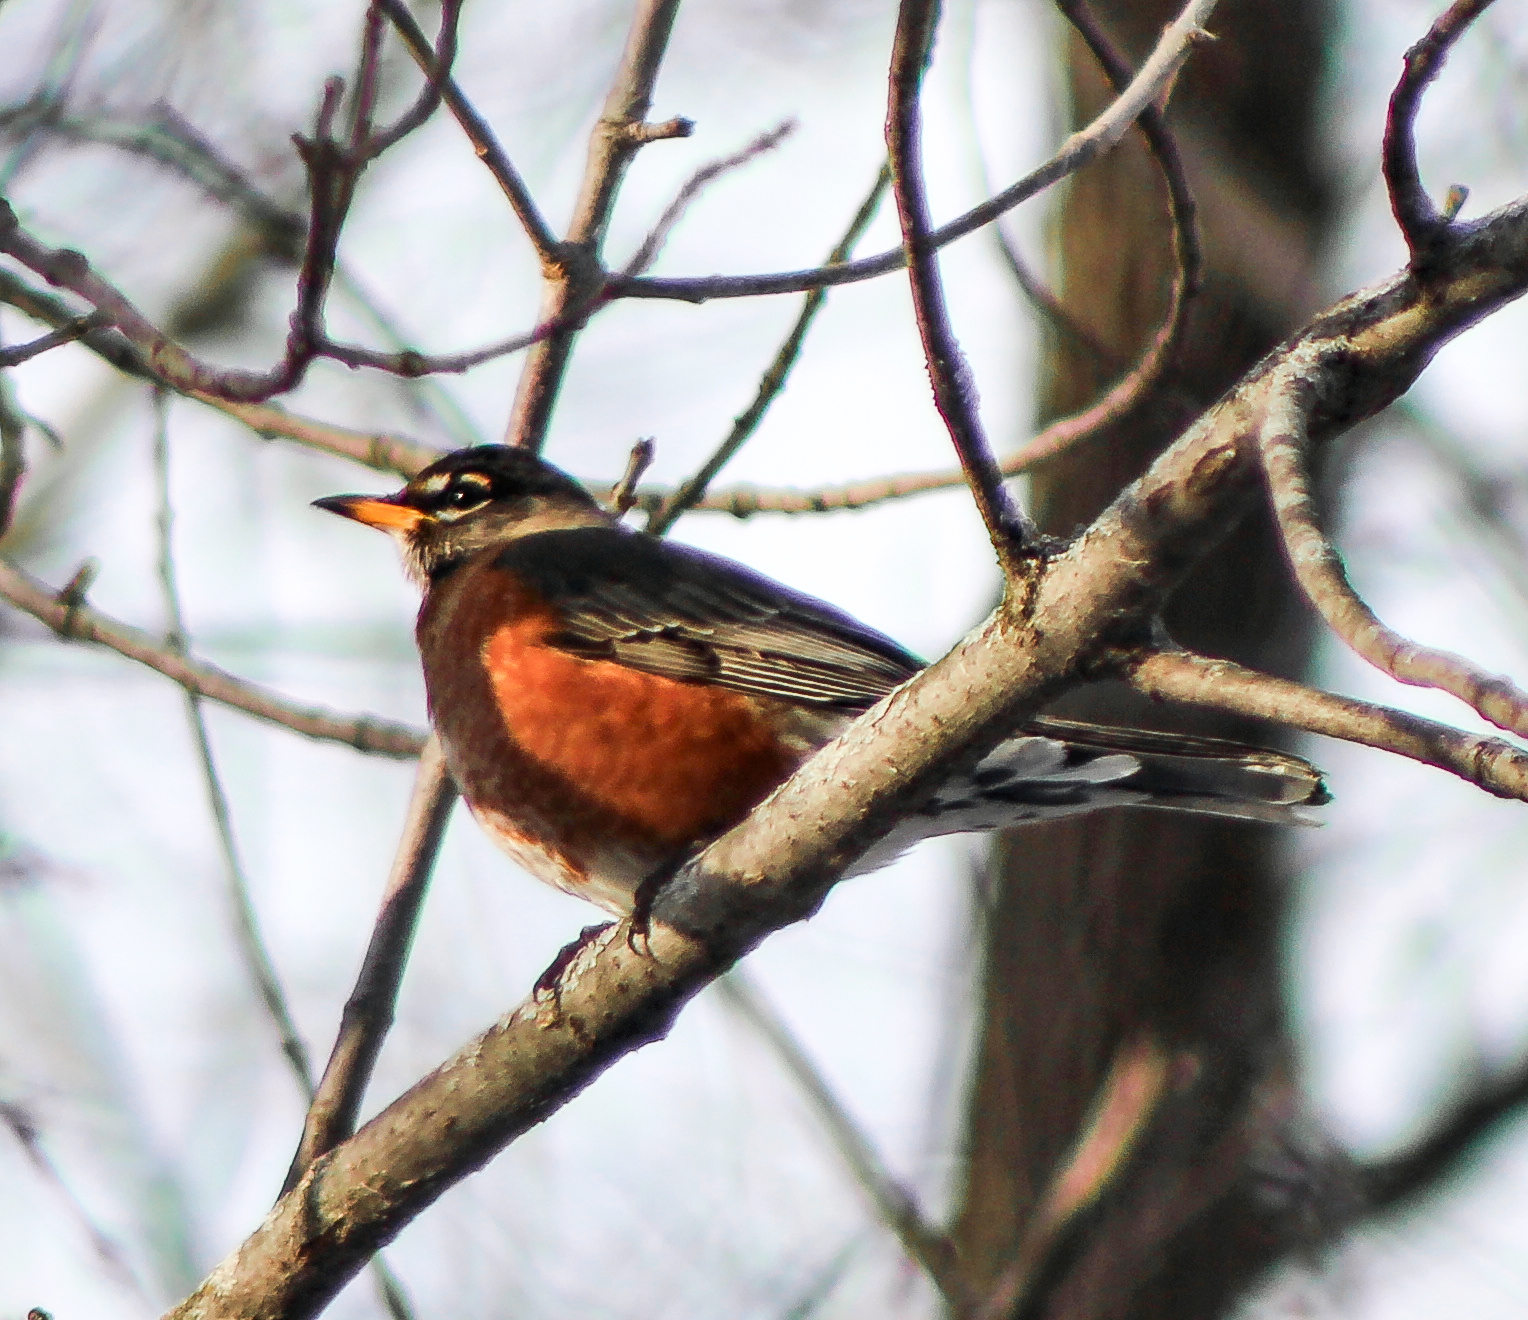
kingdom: Animalia
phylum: Chordata
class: Aves
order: Passeriformes
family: Turdidae
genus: Turdus
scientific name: Turdus migratorius
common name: American robin
